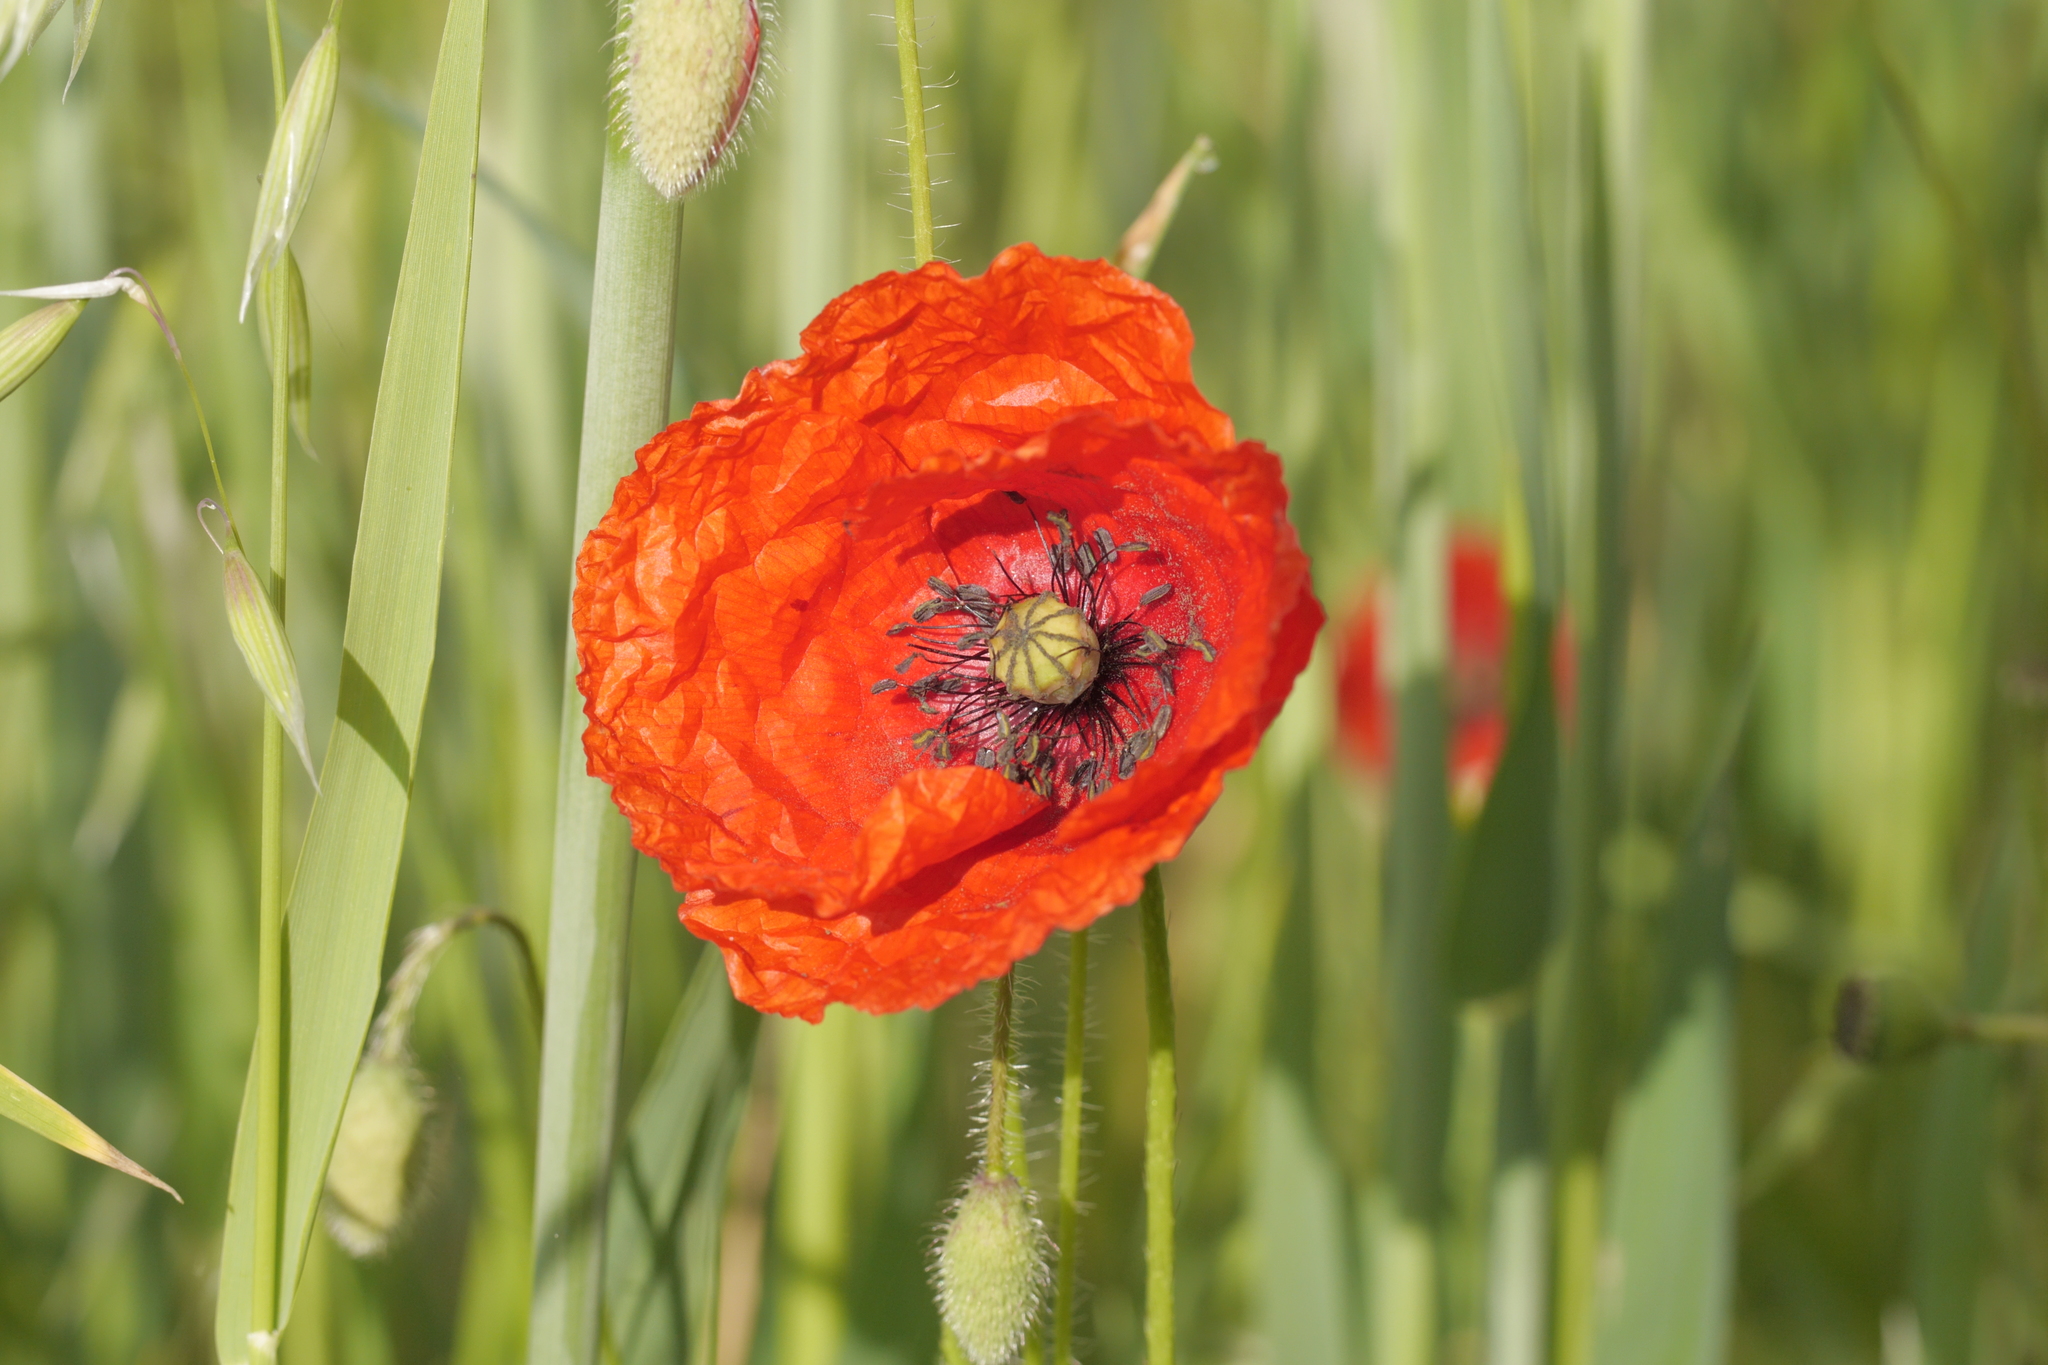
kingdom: Plantae
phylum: Tracheophyta
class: Magnoliopsida
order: Ranunculales
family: Papaveraceae
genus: Papaver
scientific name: Papaver rhoeas
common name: Corn poppy
